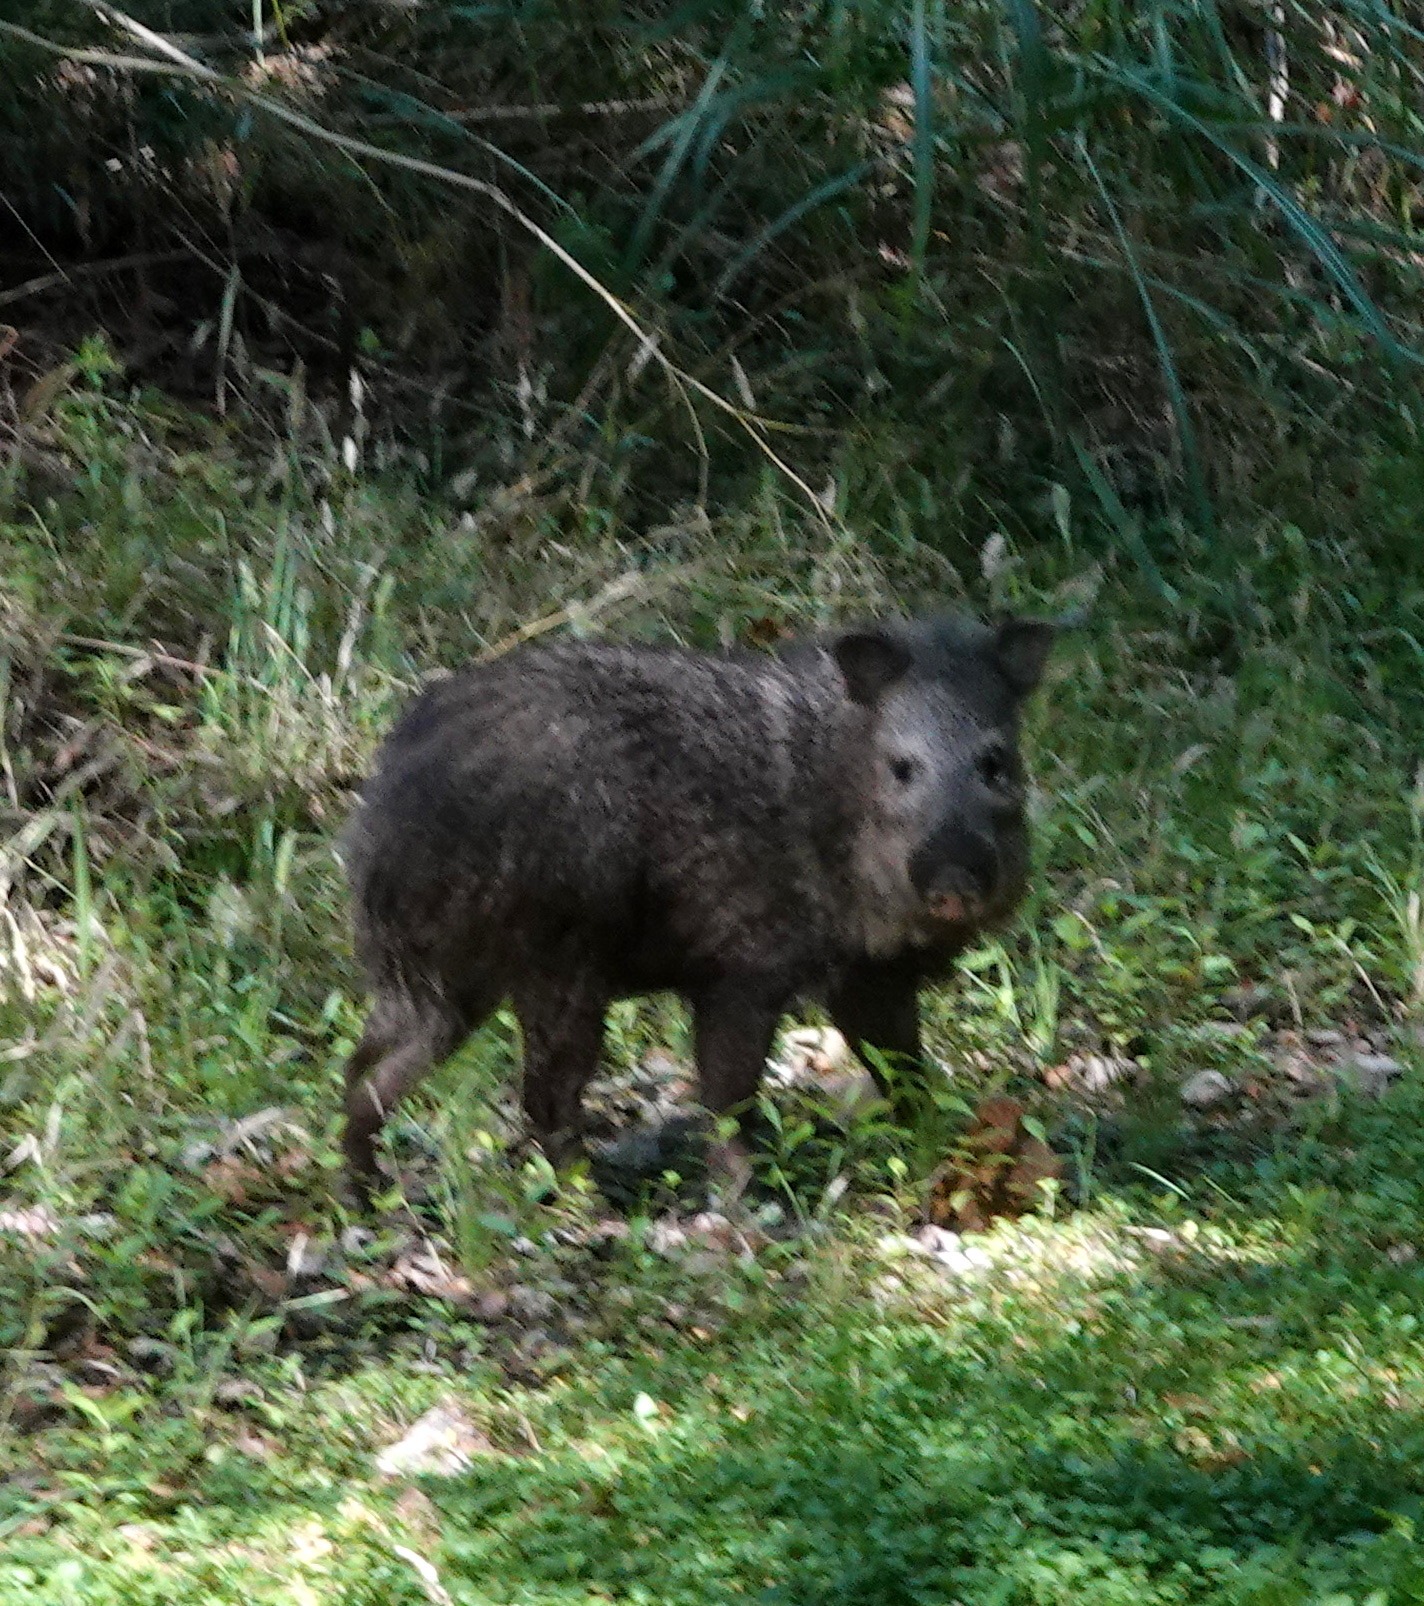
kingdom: Animalia
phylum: Chordata
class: Mammalia
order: Artiodactyla
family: Tayassuidae
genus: Pecari
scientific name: Pecari tajacu
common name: Collared peccary
